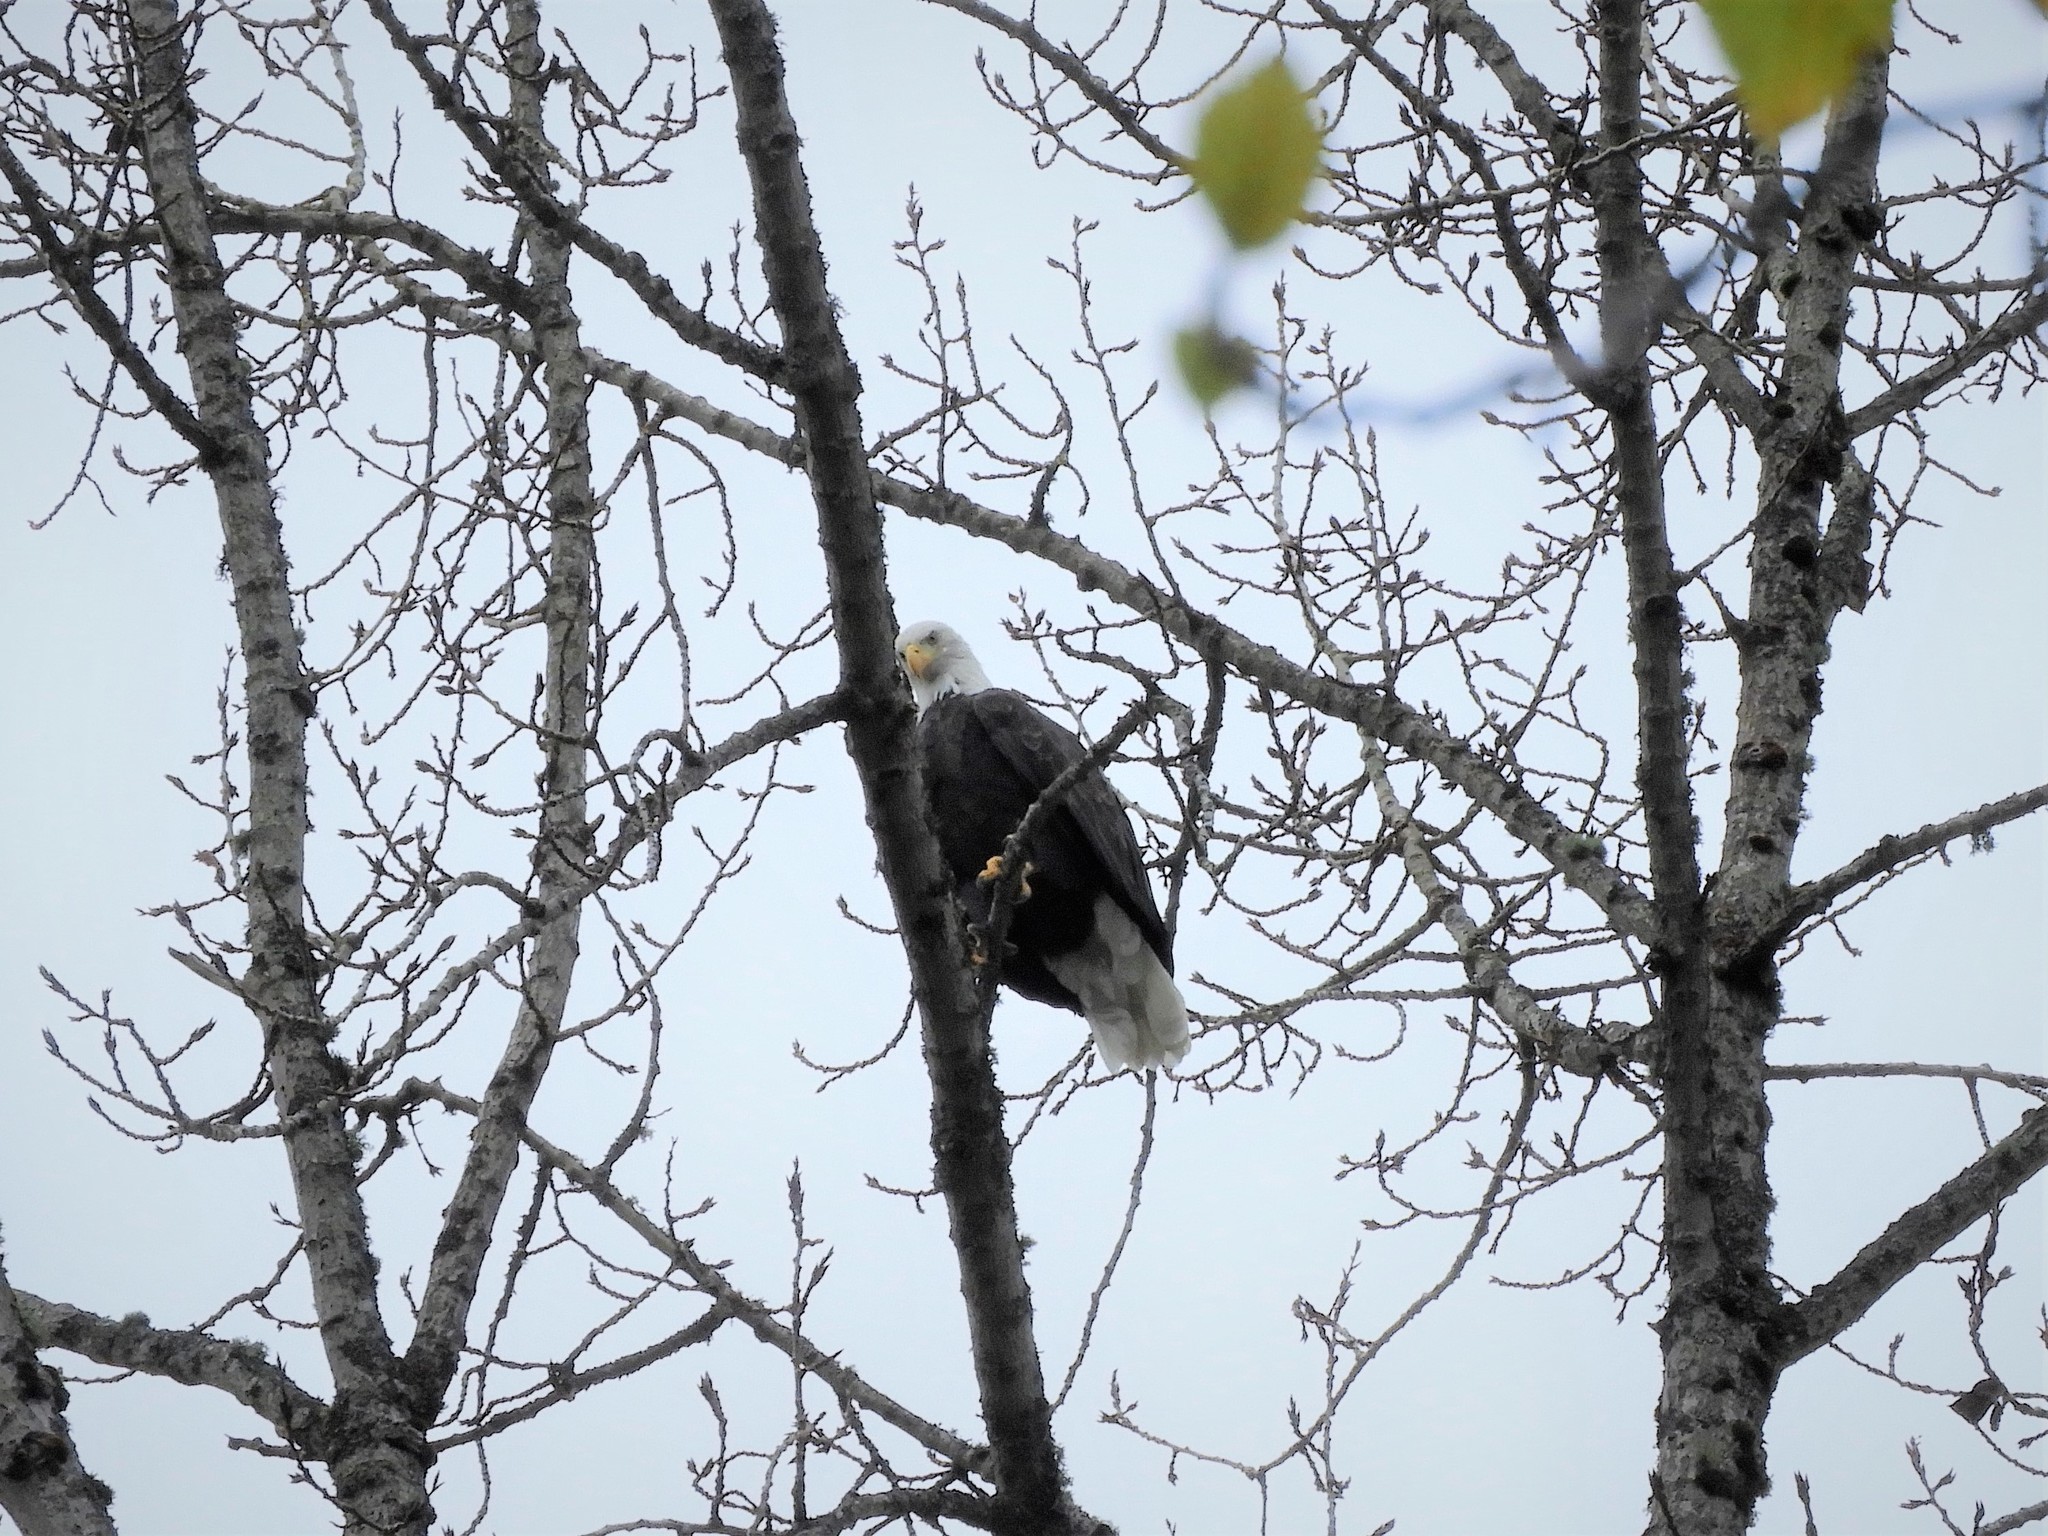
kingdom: Animalia
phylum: Chordata
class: Aves
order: Accipitriformes
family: Accipitridae
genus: Haliaeetus
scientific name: Haliaeetus leucocephalus
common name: Bald eagle
